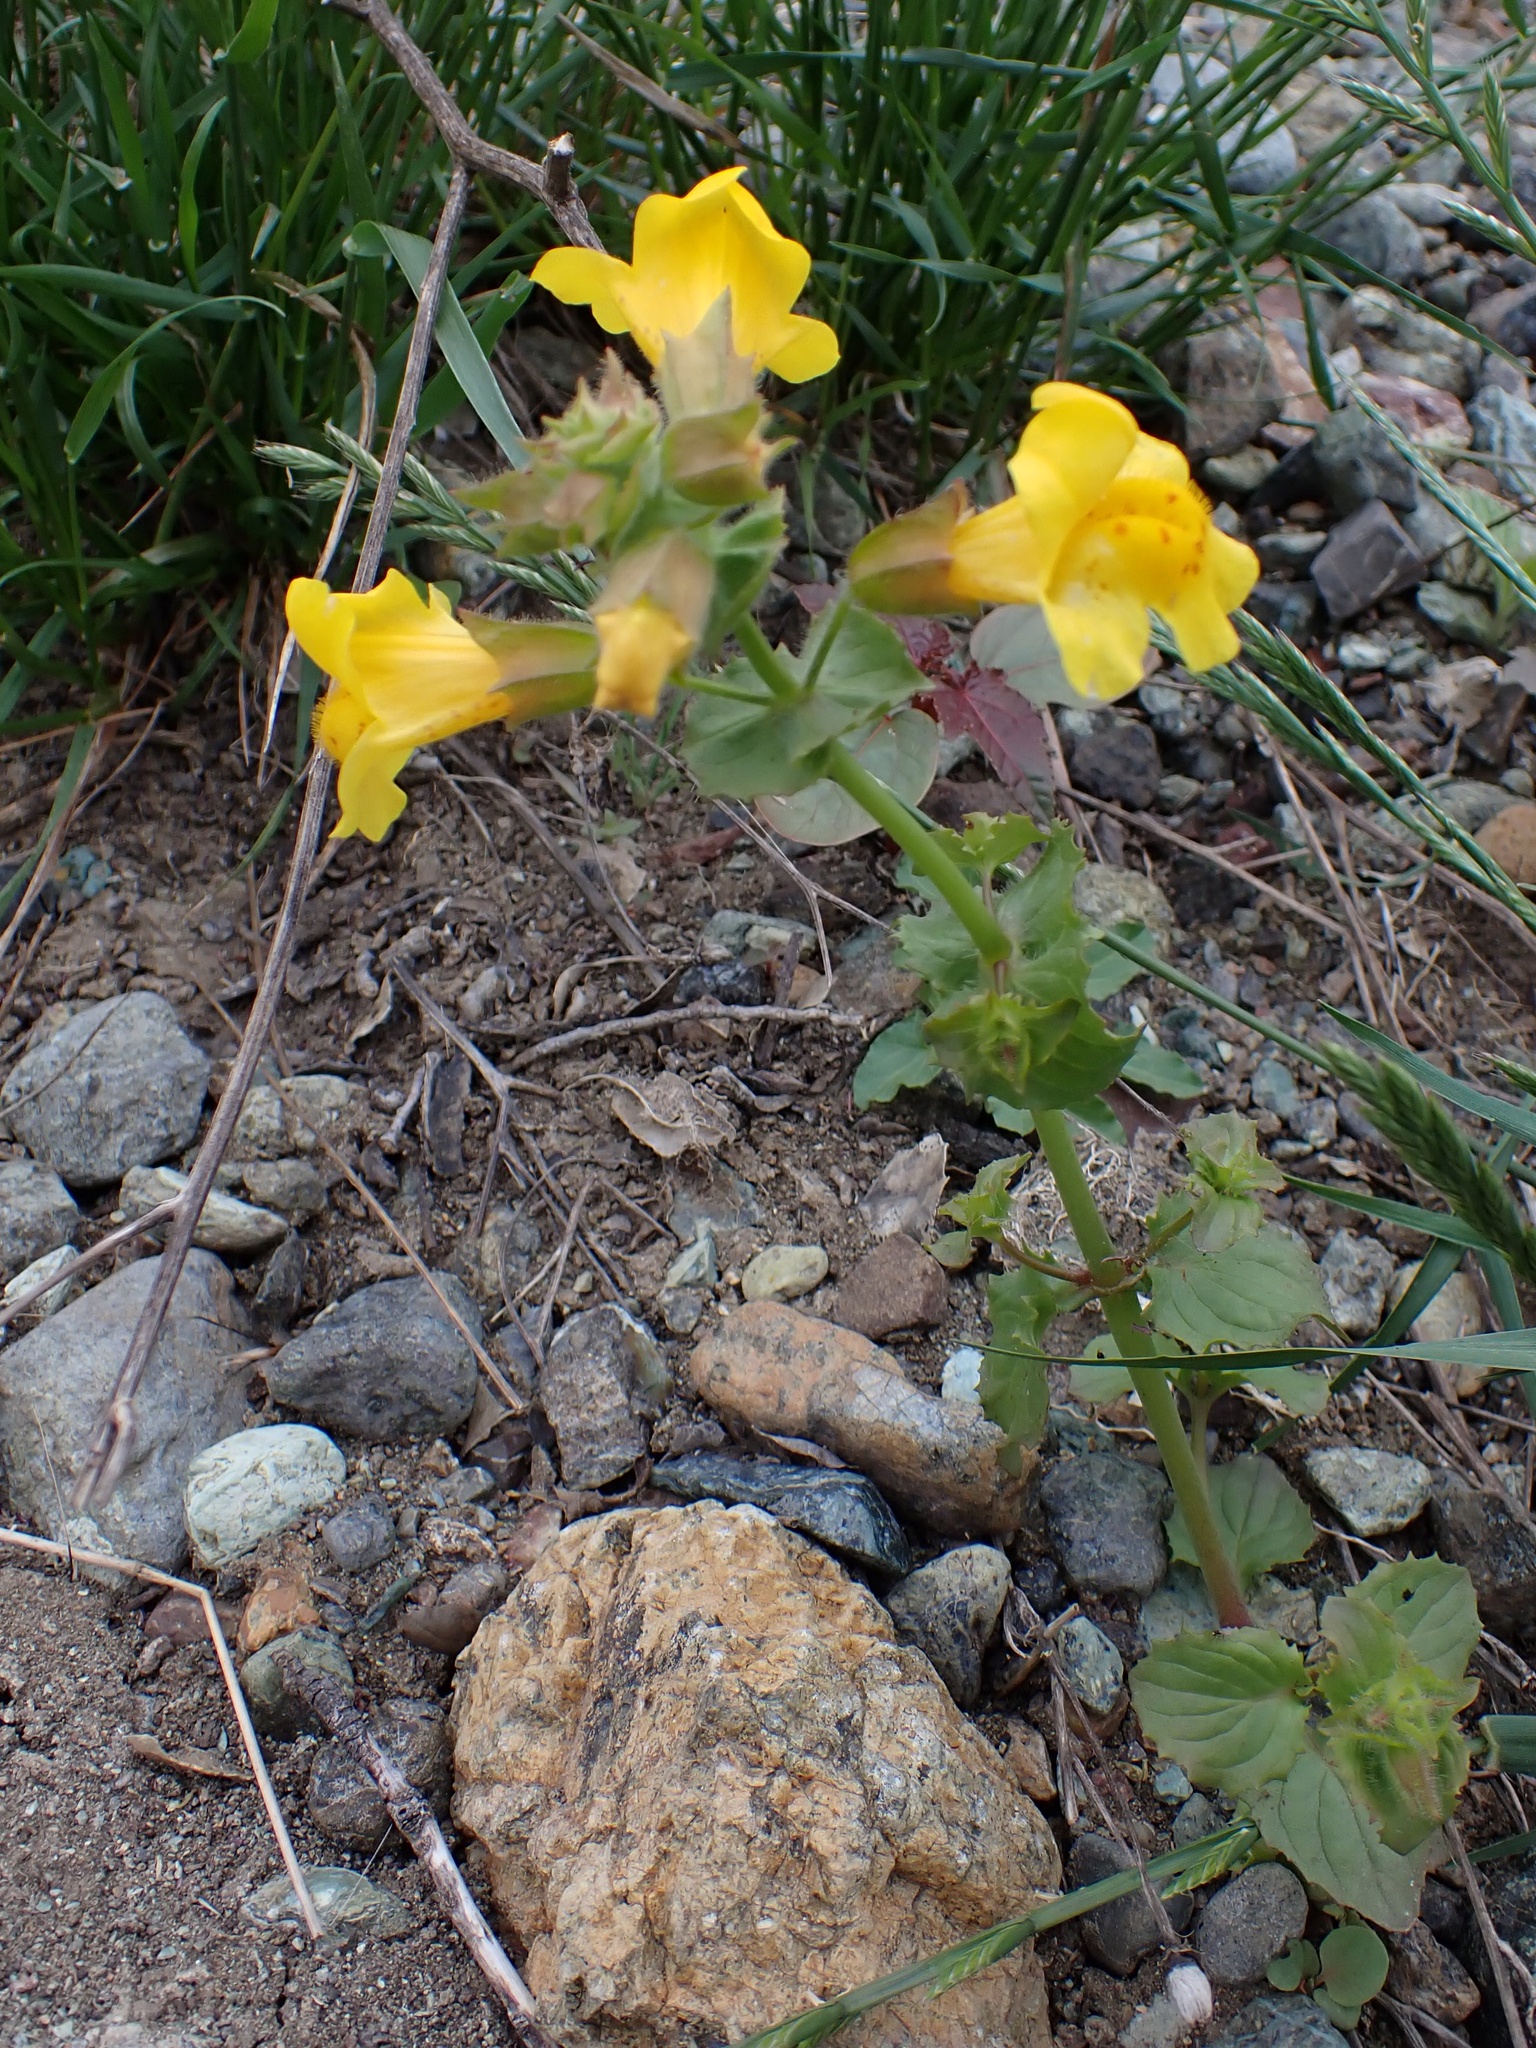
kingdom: Plantae
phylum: Tracheophyta
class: Magnoliopsida
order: Lamiales
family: Phrymaceae
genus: Erythranthe
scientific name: Erythranthe guttata
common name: Monkeyflower
